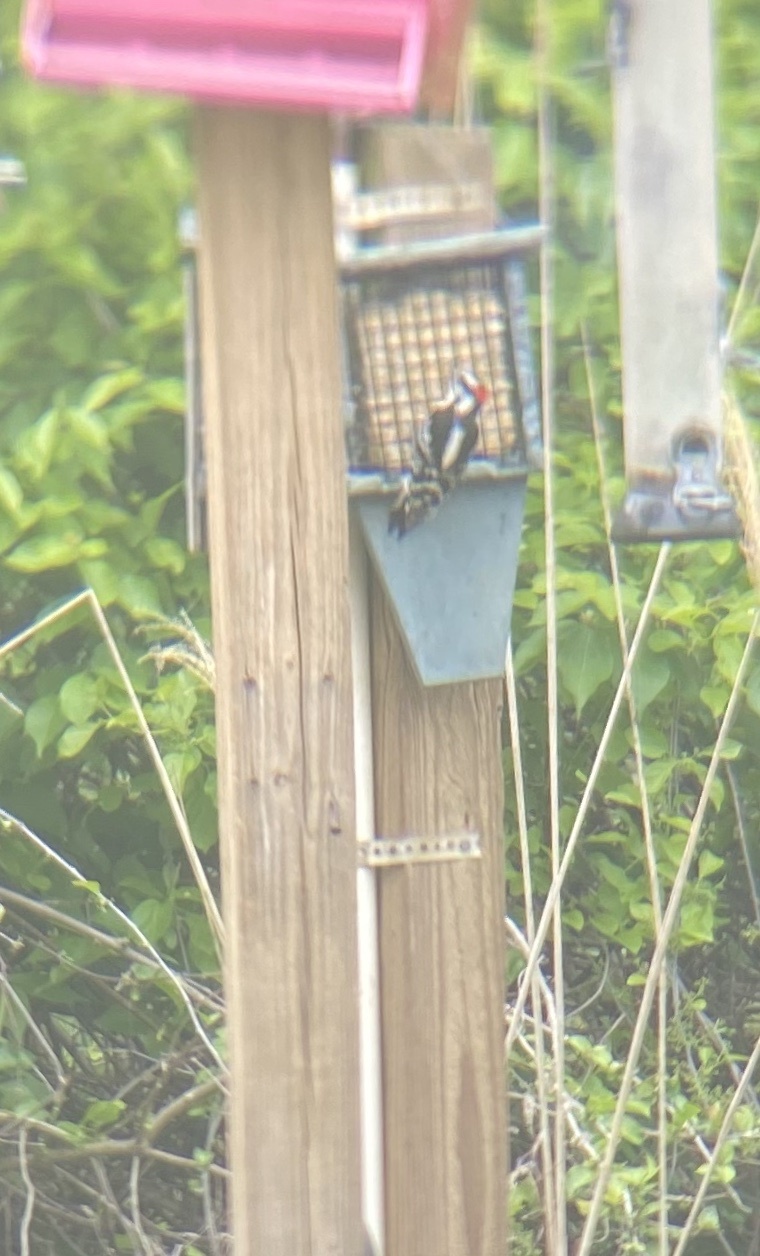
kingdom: Animalia
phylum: Chordata
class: Aves
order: Piciformes
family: Picidae
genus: Dryobates
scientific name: Dryobates pubescens
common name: Downy woodpecker
